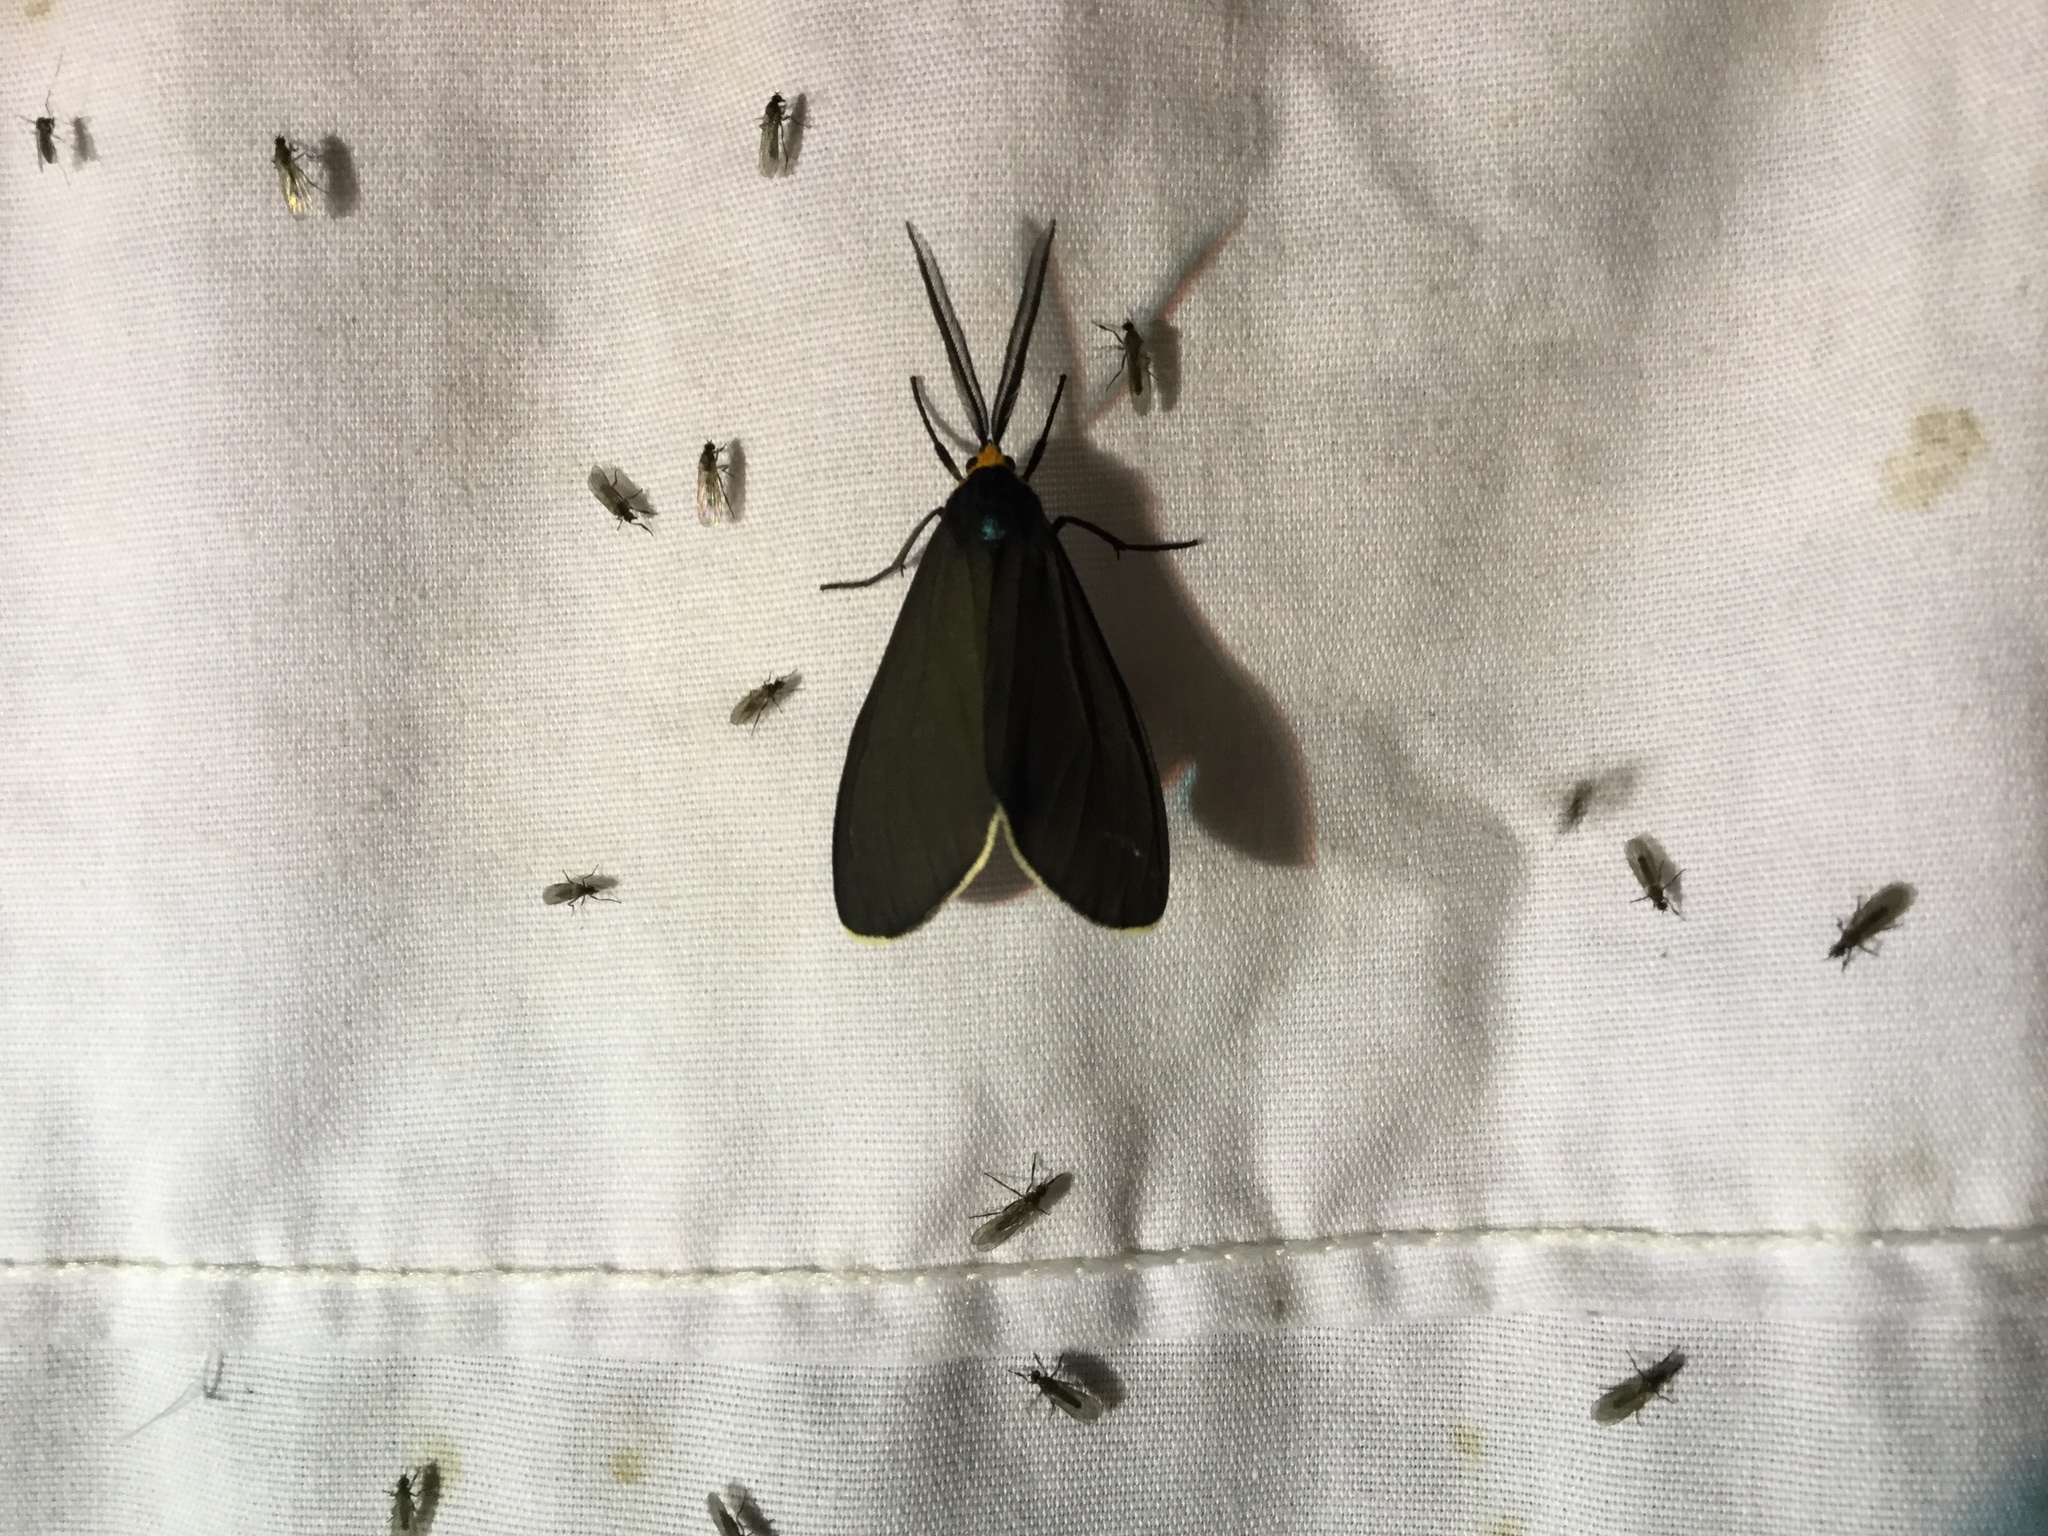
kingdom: Animalia
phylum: Arthropoda
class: Insecta
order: Lepidoptera
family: Erebidae
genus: Ctenucha
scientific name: Ctenucha virginica
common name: Virginia ctenucha moth
